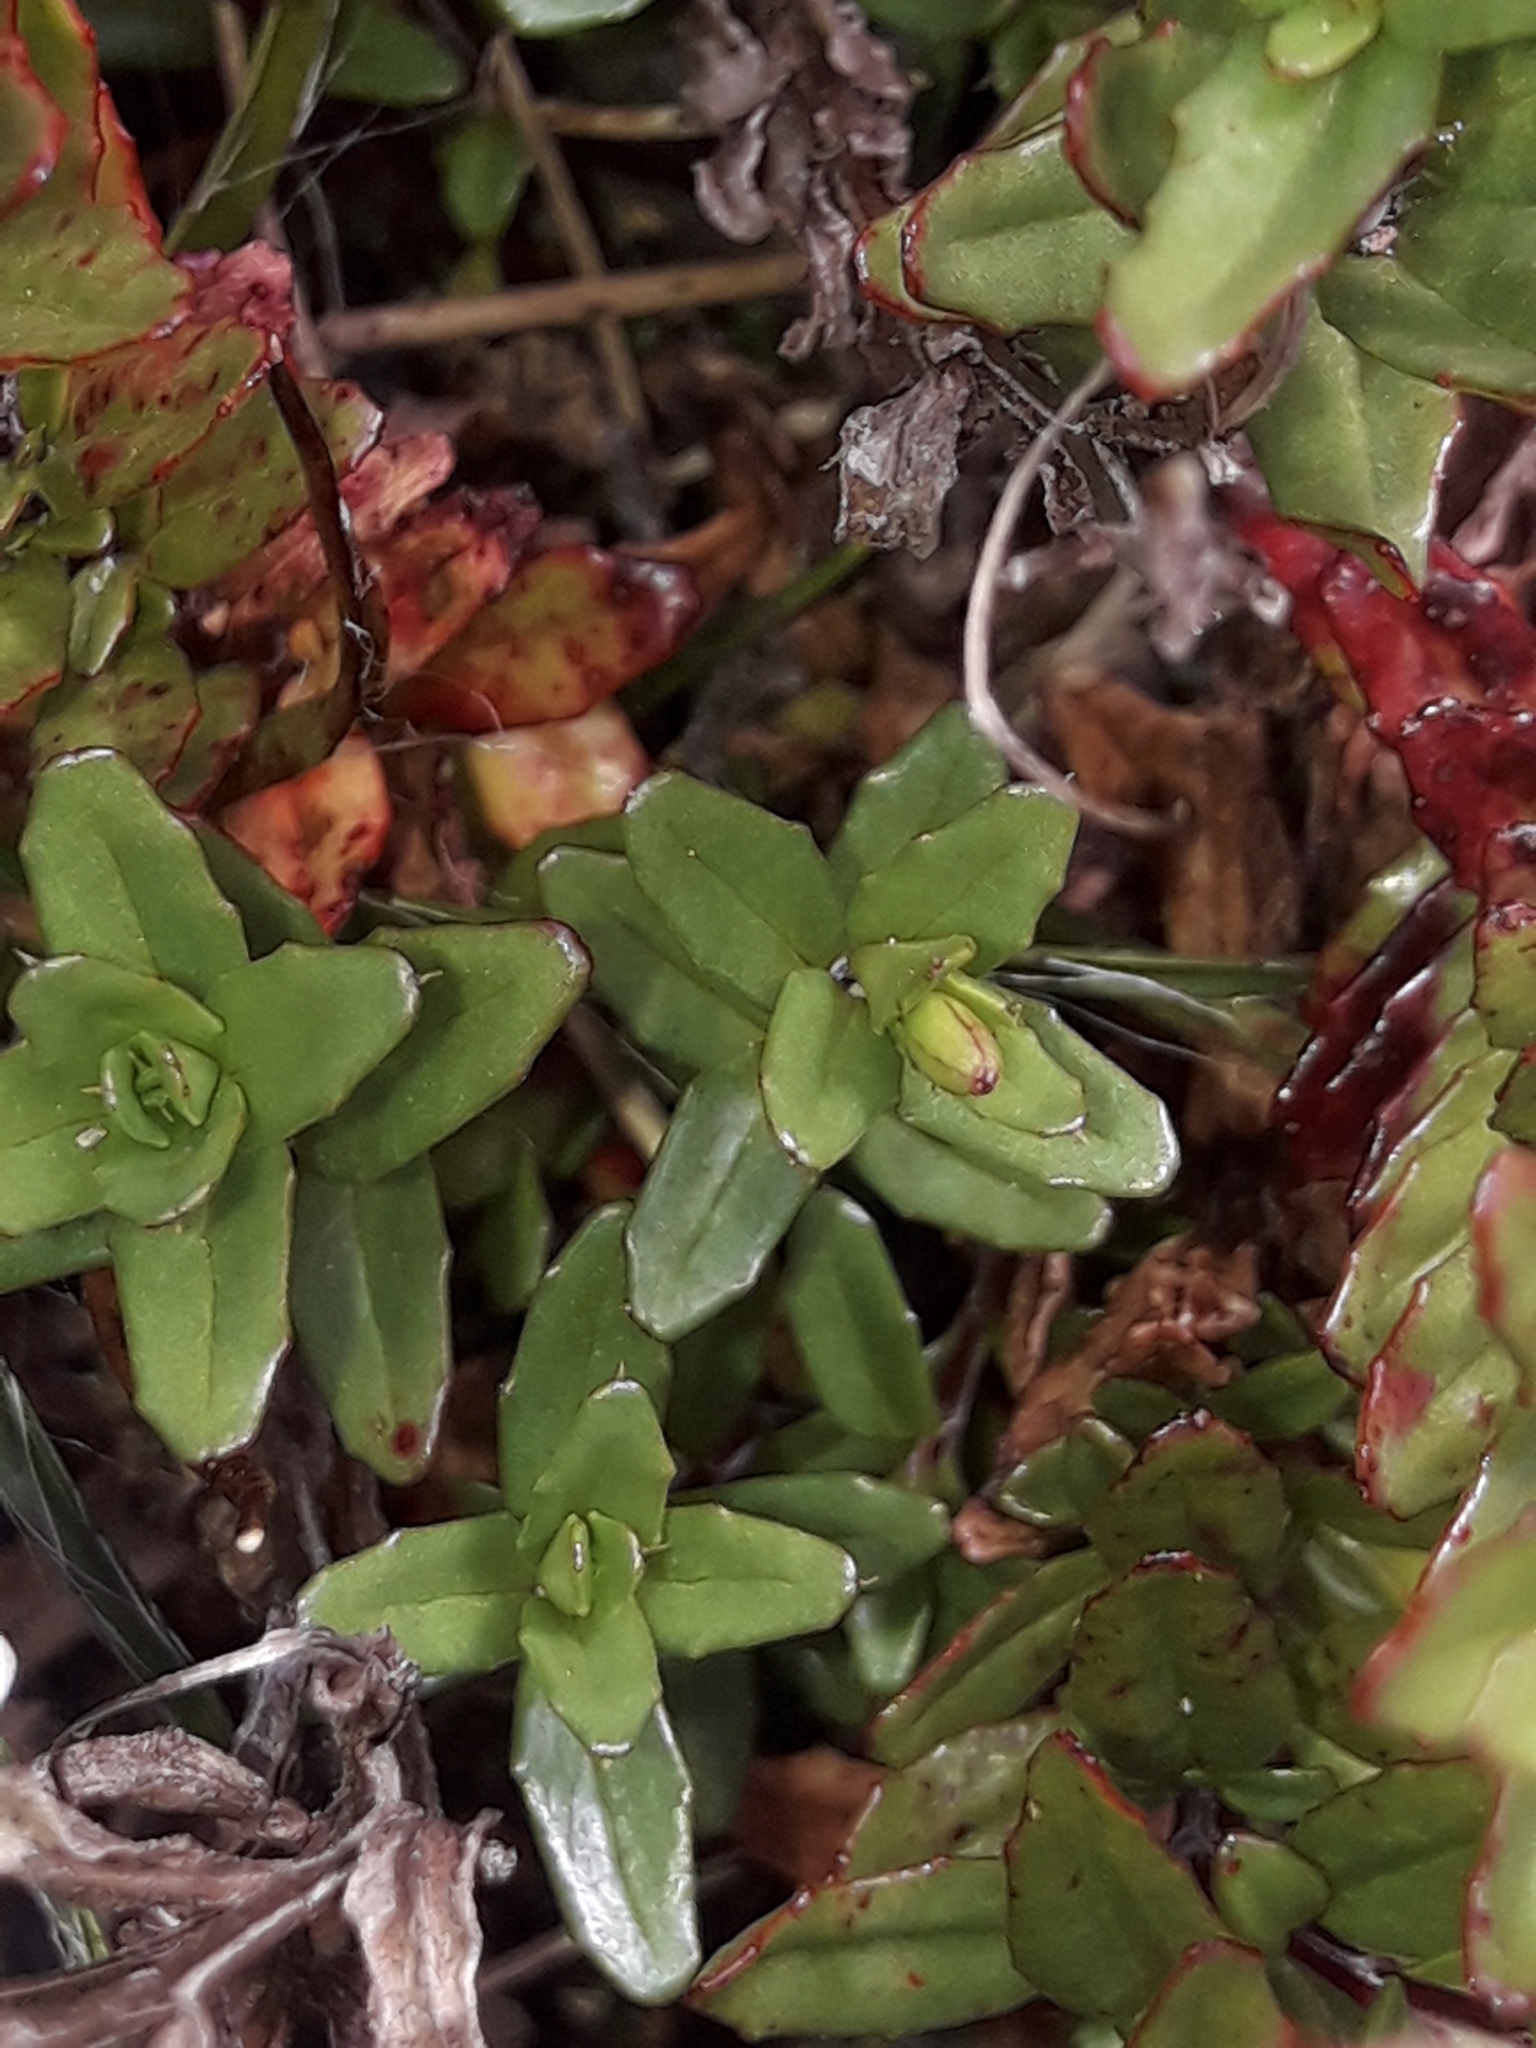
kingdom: Plantae
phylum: Tracheophyta
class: Magnoliopsida
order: Myrtales
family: Onagraceae
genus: Epilobium
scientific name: Epilobium glabellum
